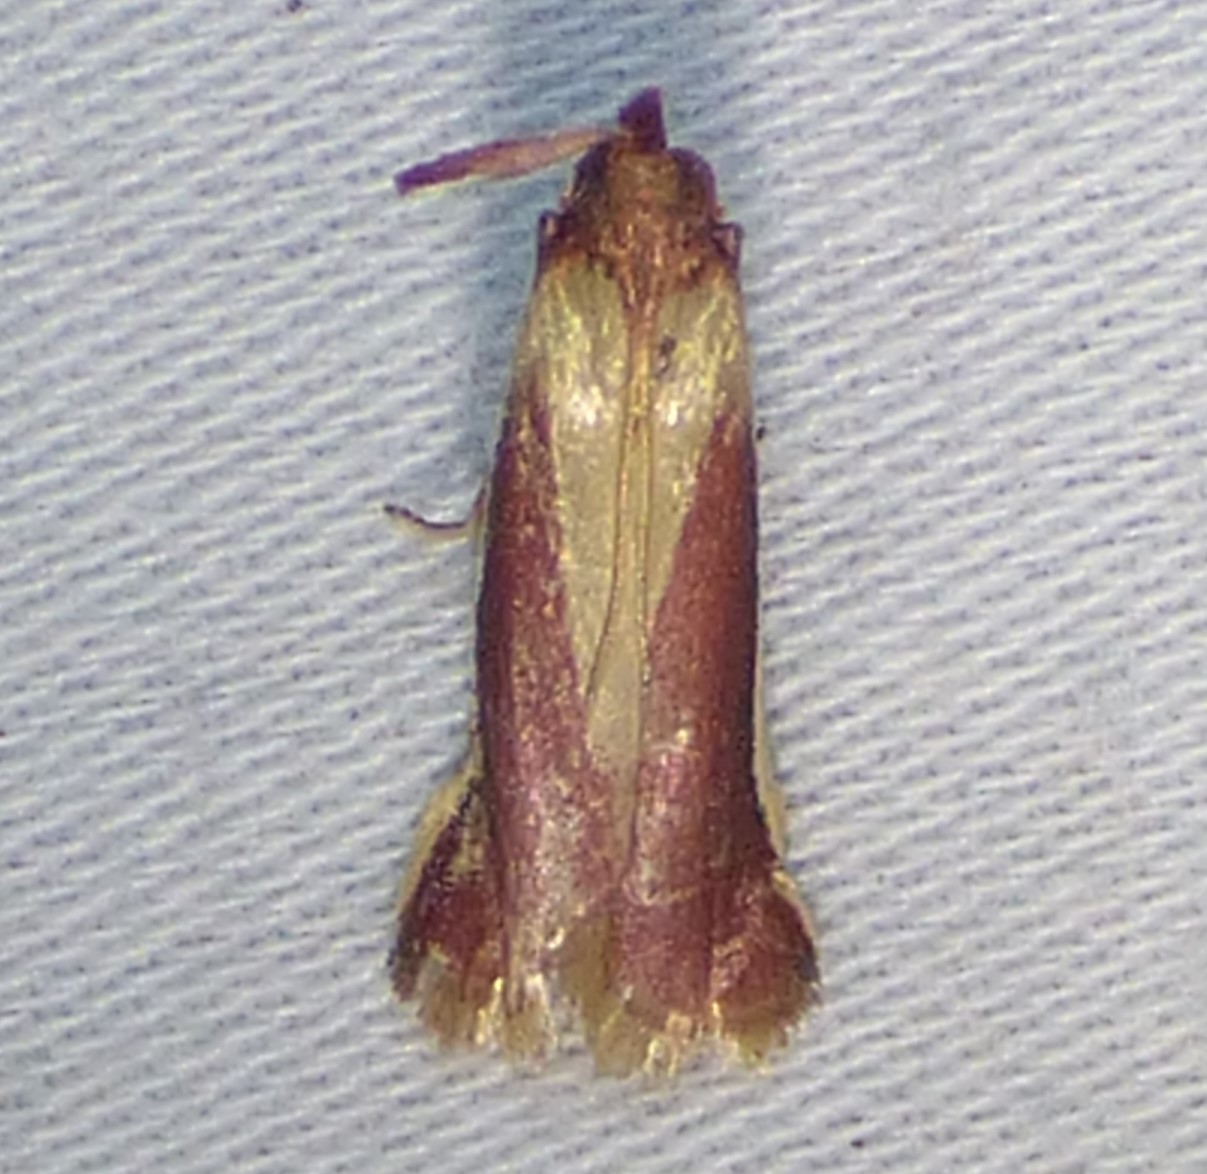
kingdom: Animalia
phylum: Arthropoda
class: Insecta
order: Lepidoptera
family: Pyralidae
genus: Peoria
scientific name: Peoria approximella
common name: Carmine snout
